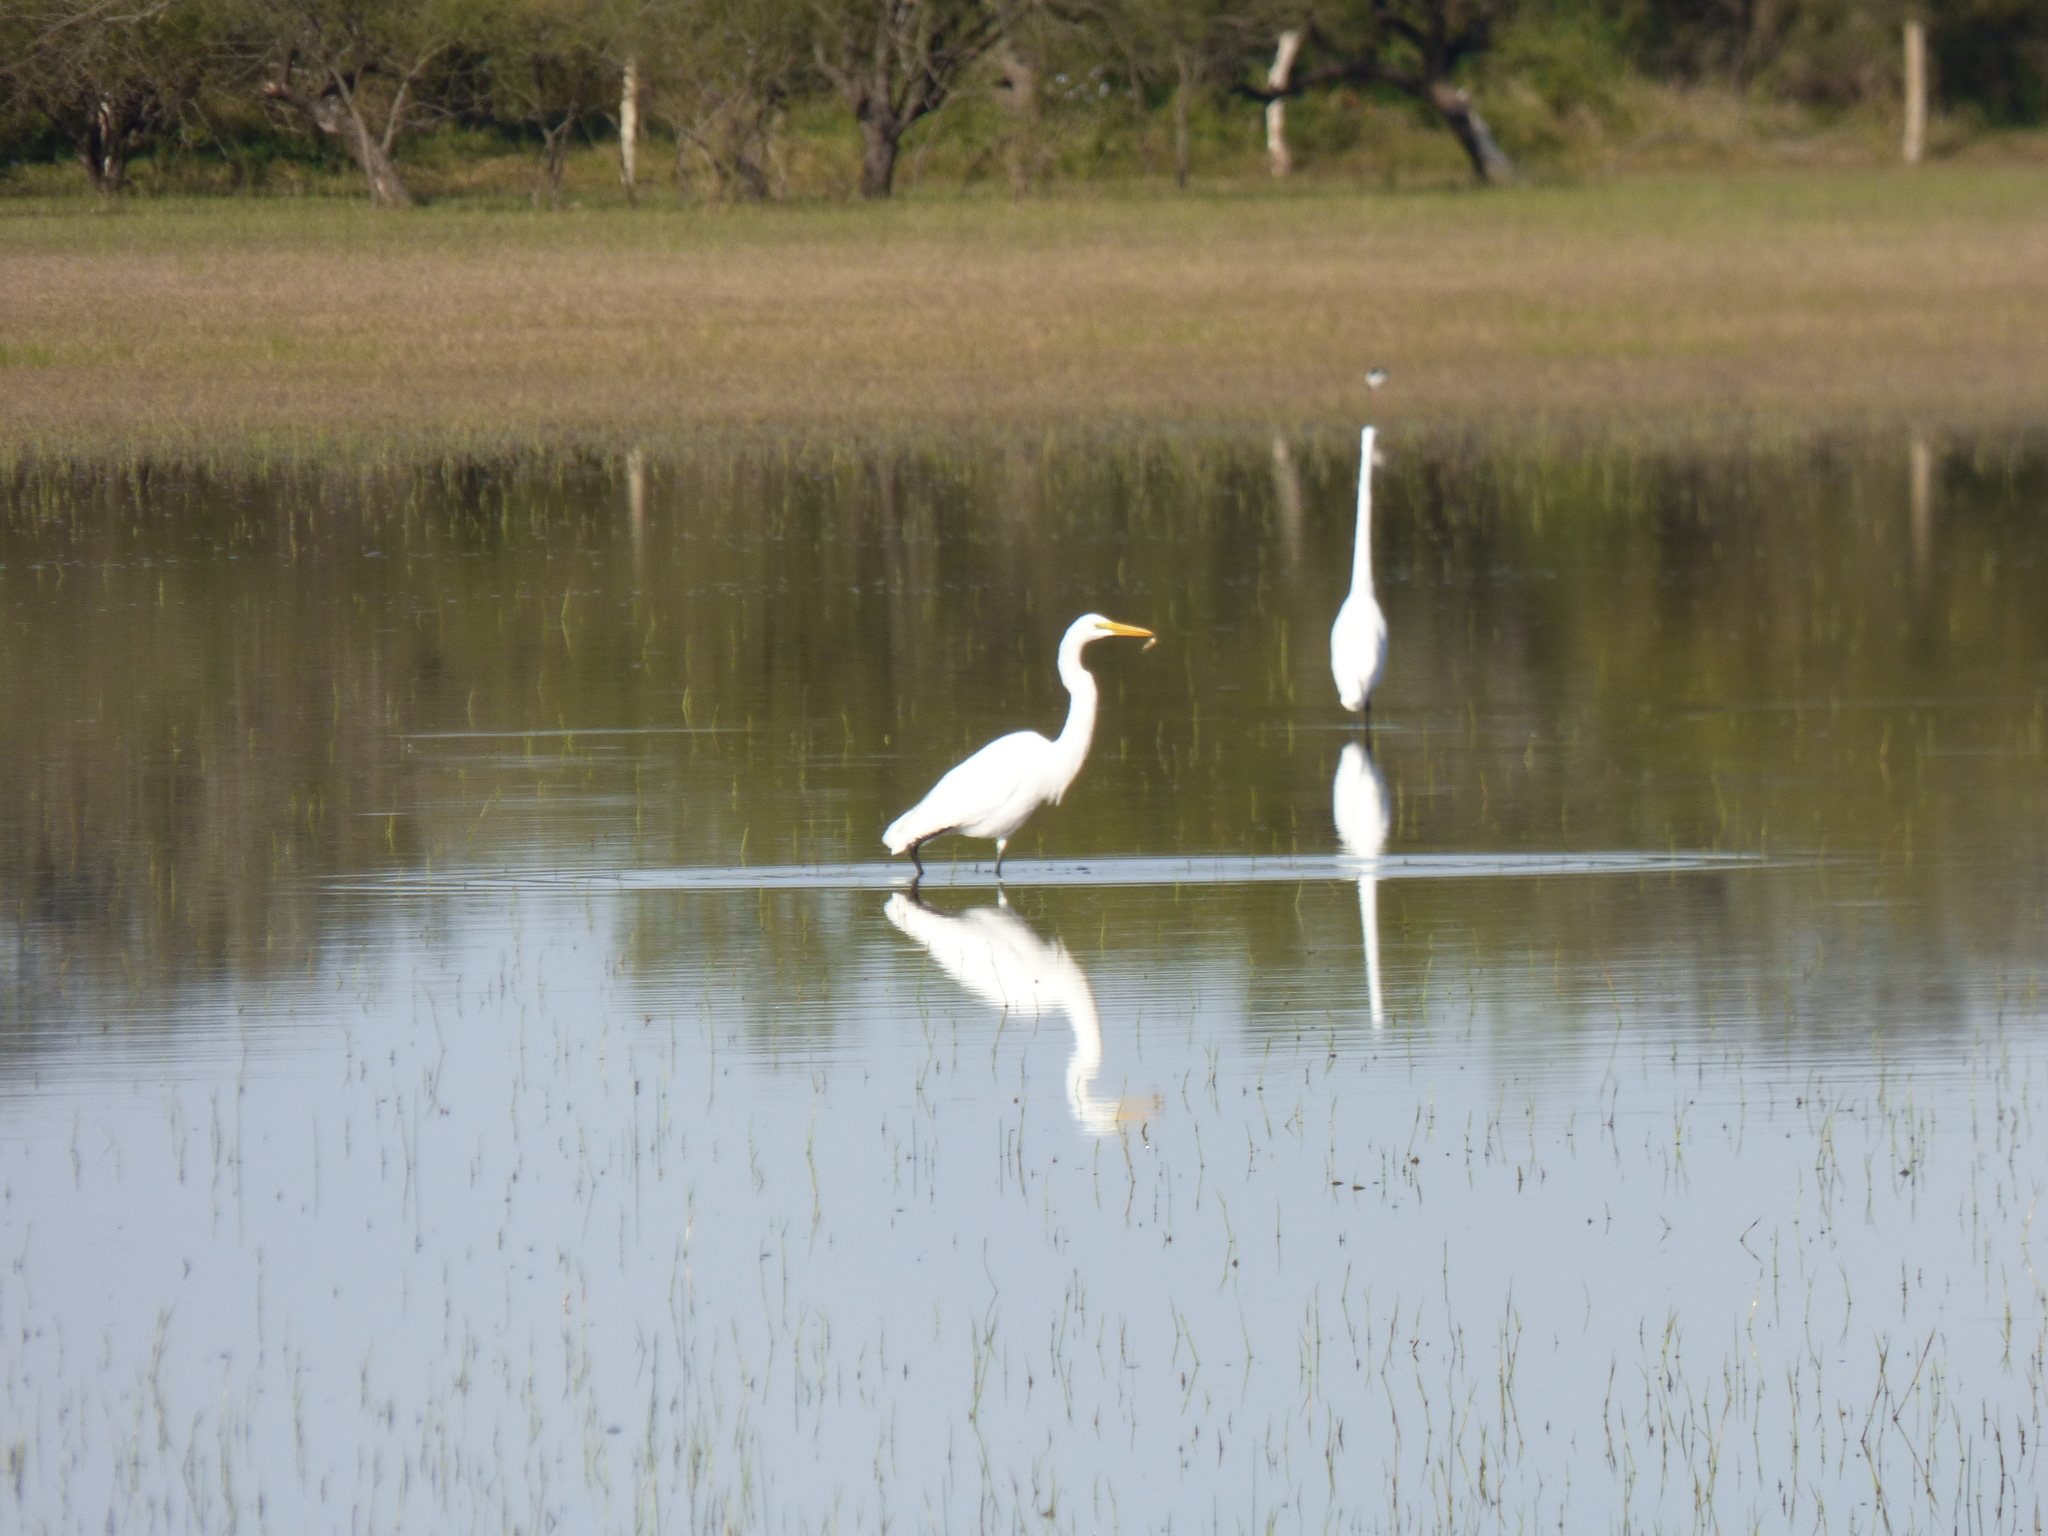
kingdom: Animalia
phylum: Chordata
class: Aves
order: Pelecaniformes
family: Ardeidae
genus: Ardea
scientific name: Ardea alba
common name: Great egret
